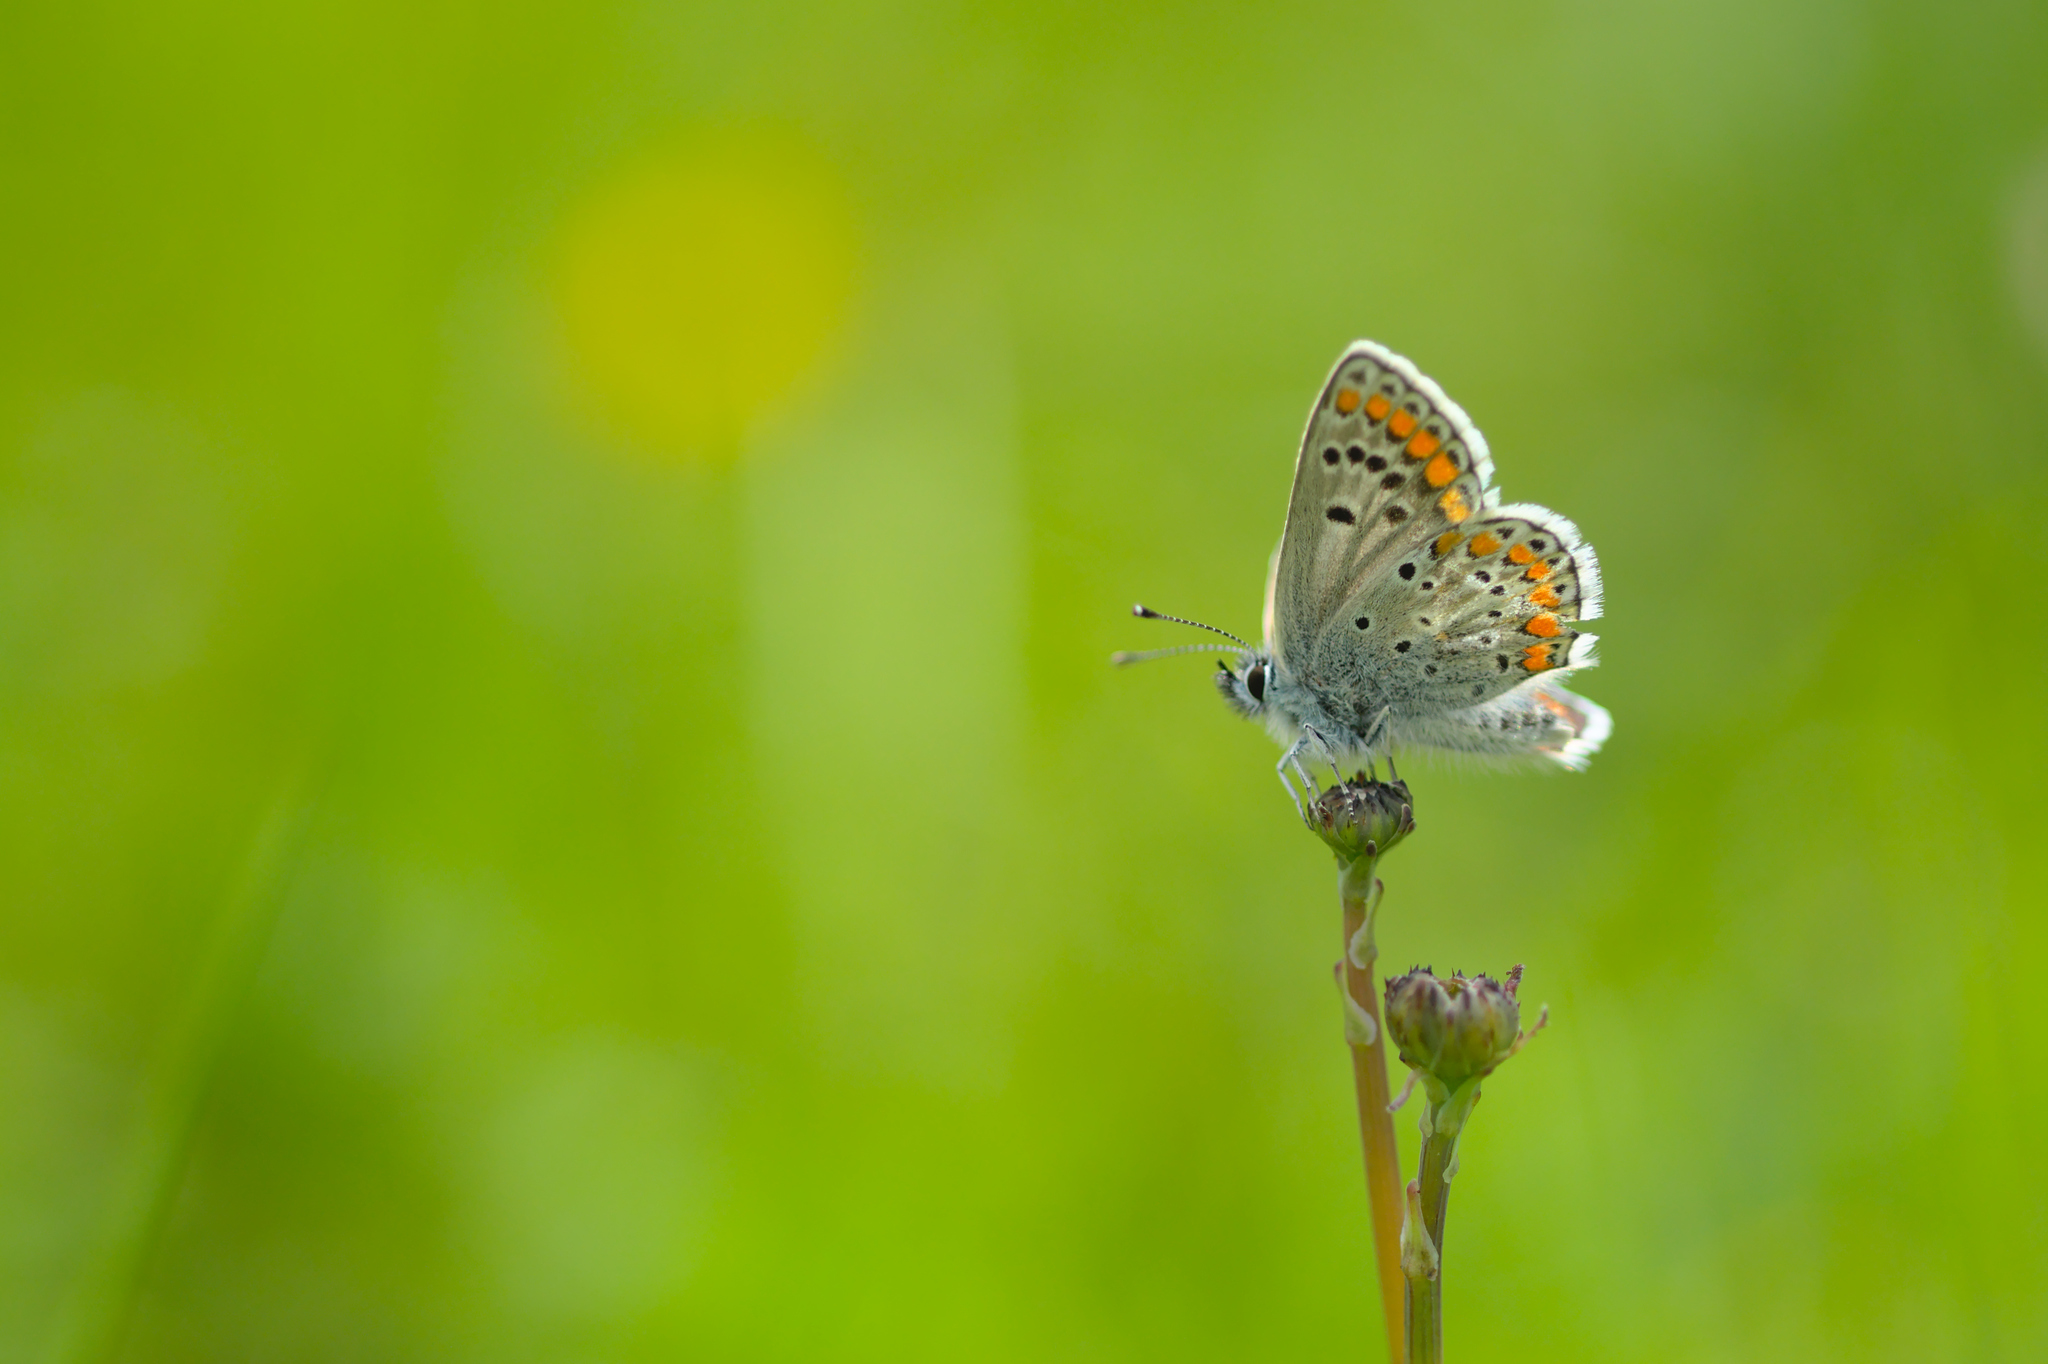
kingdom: Animalia
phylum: Arthropoda
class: Insecta
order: Lepidoptera
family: Lycaenidae
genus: Aricia
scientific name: Aricia agestis
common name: Brown argus
